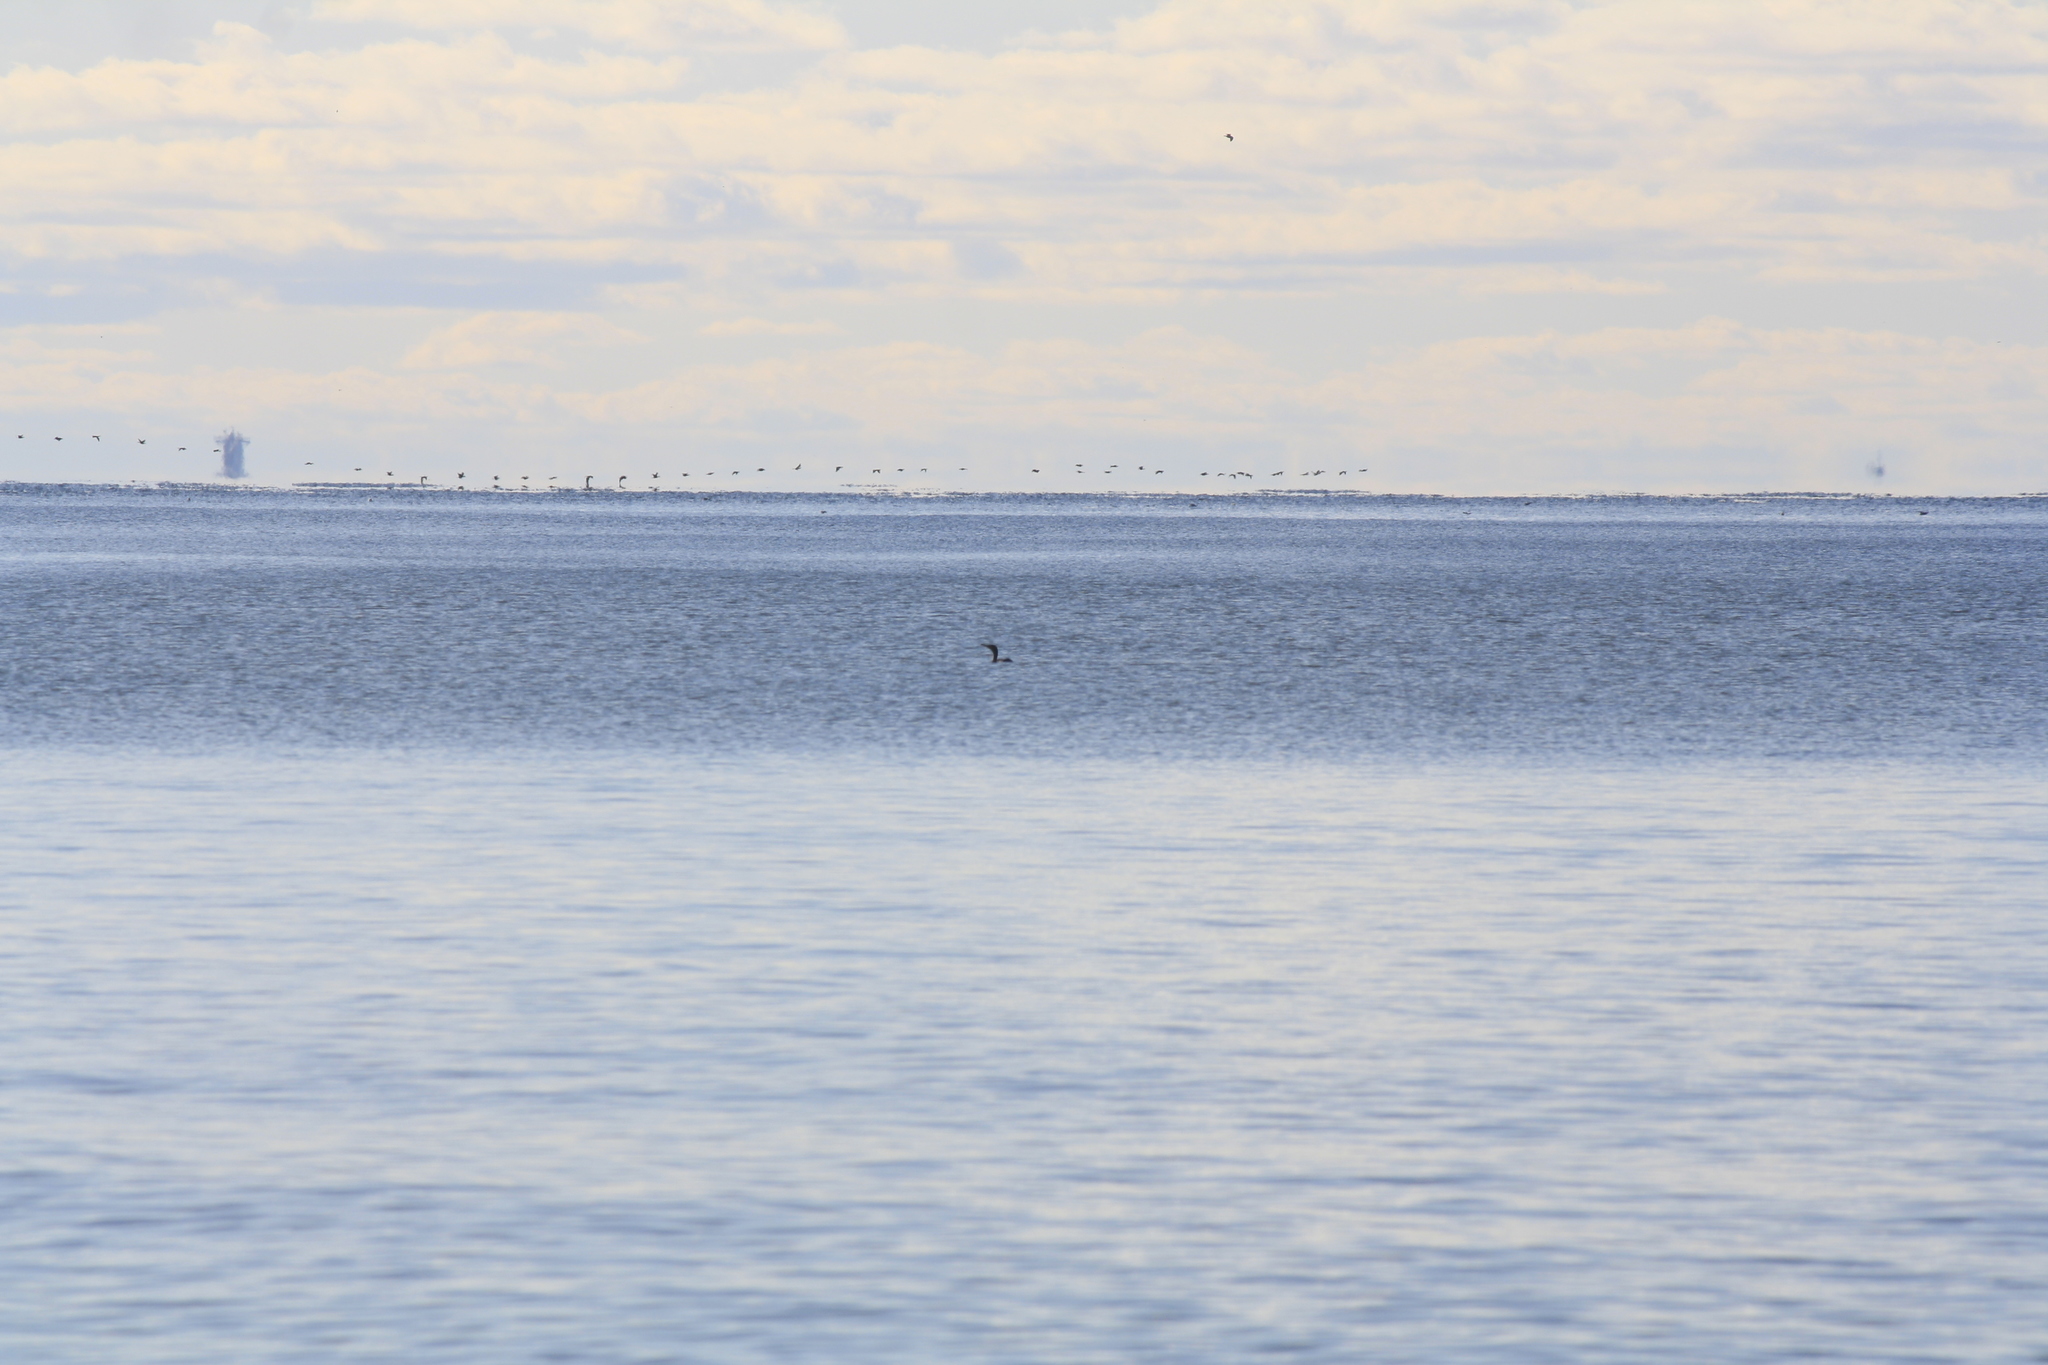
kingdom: Animalia
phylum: Chordata
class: Aves
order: Suliformes
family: Phalacrocoracidae
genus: Phalacrocorax
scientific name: Phalacrocorax carbo
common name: Great cormorant
